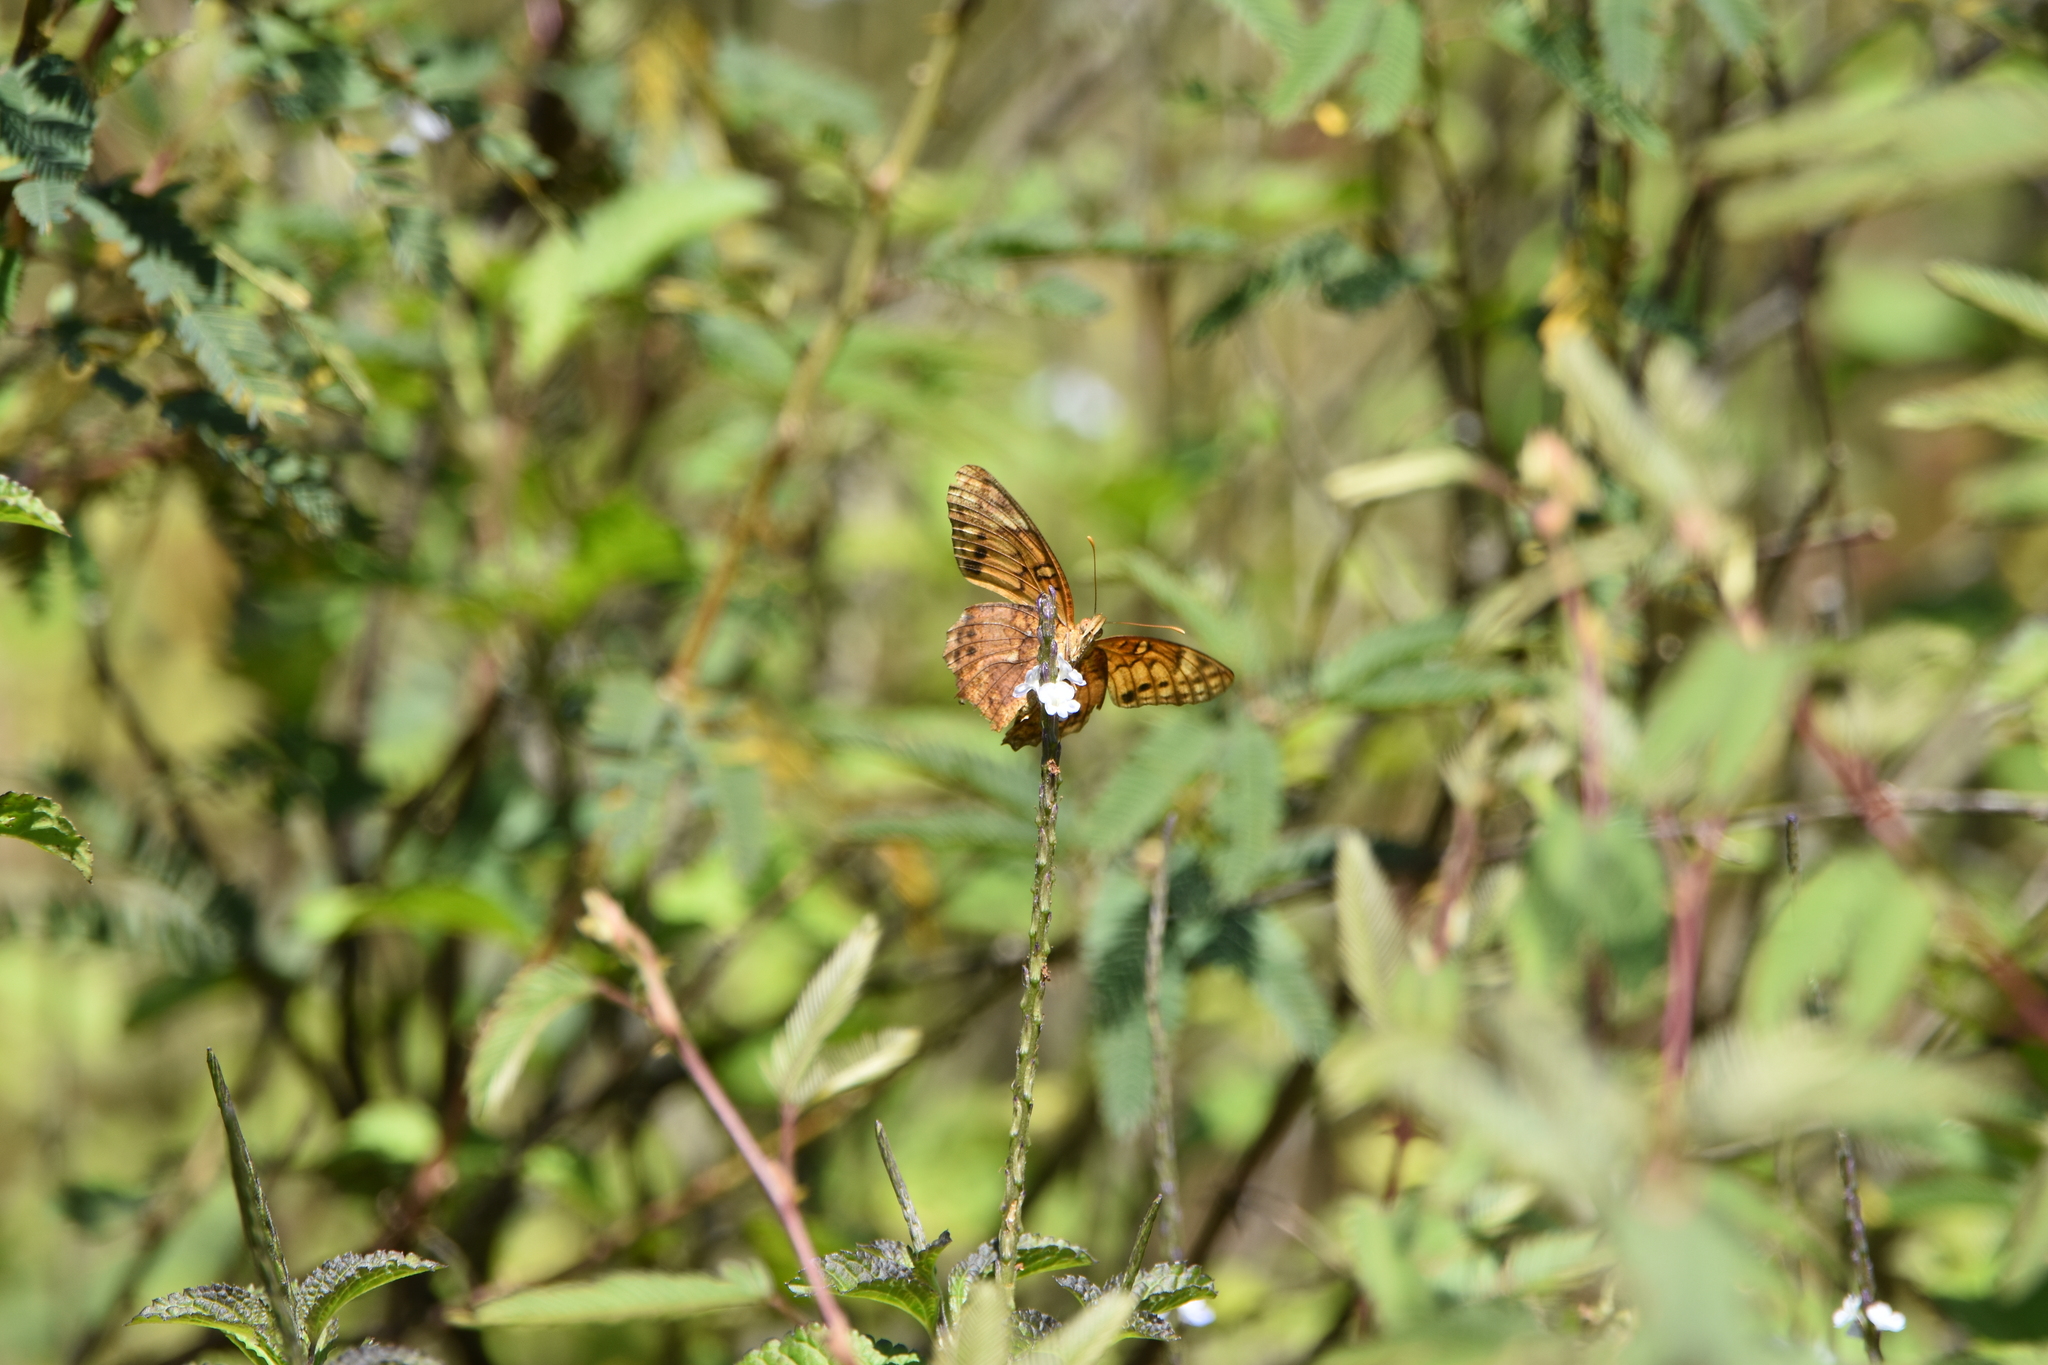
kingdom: Animalia
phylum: Arthropoda
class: Insecta
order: Lepidoptera
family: Nymphalidae
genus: Euptoieta
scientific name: Euptoieta hortensia
